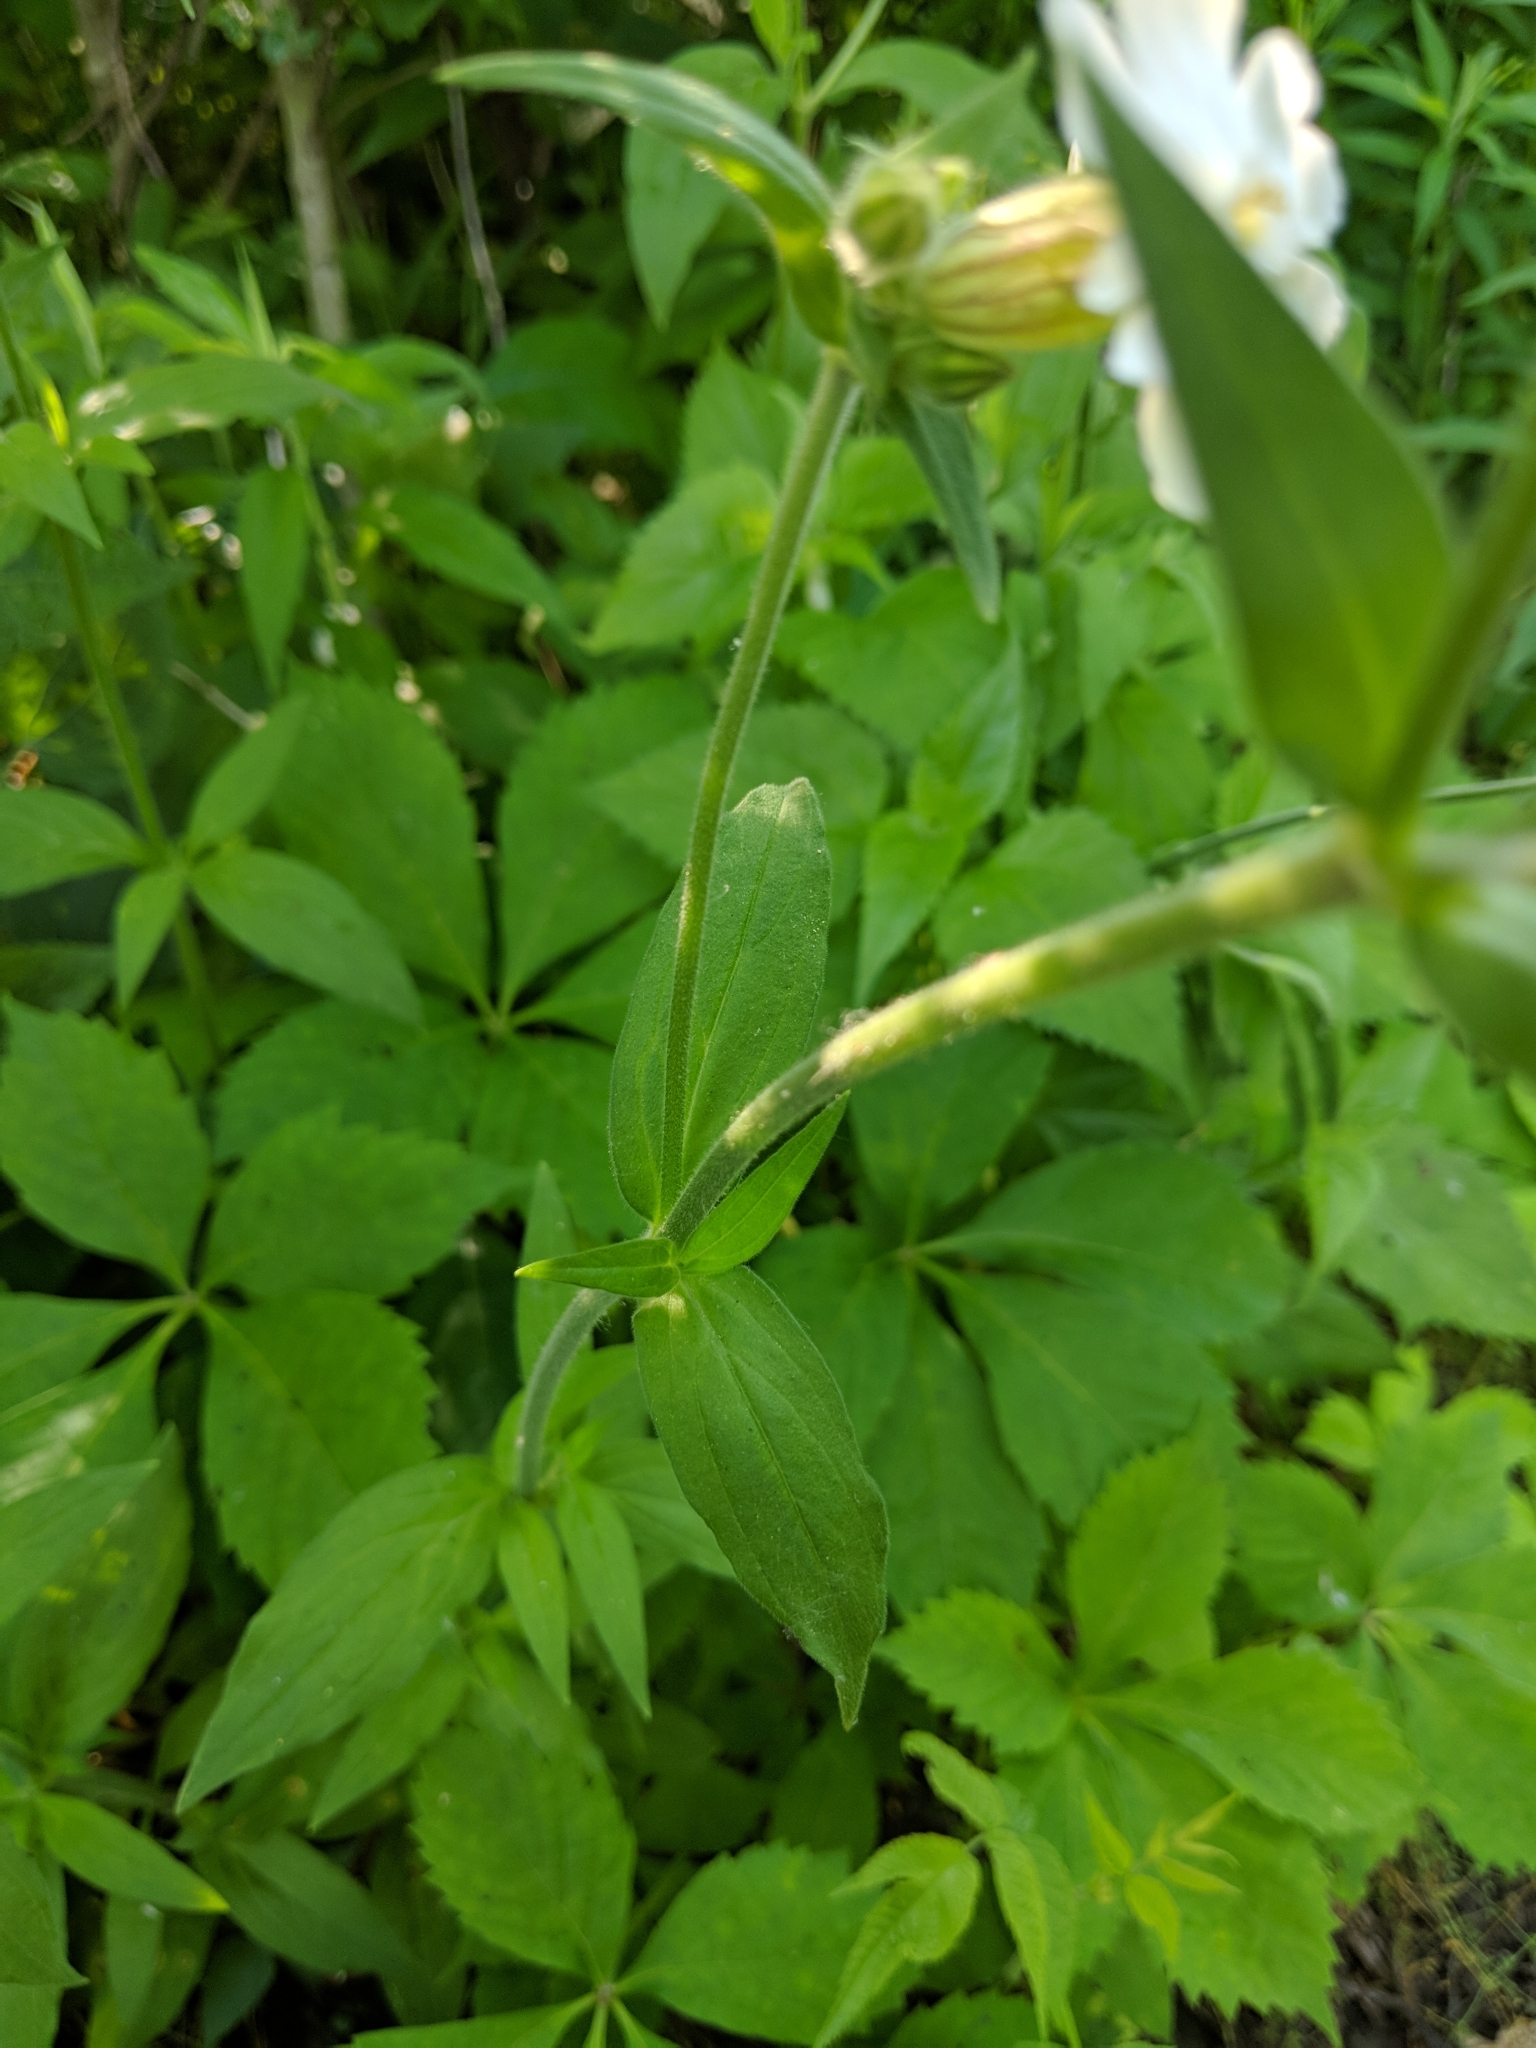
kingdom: Plantae
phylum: Tracheophyta
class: Magnoliopsida
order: Caryophyllales
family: Caryophyllaceae
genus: Silene
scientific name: Silene latifolia
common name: White campion
